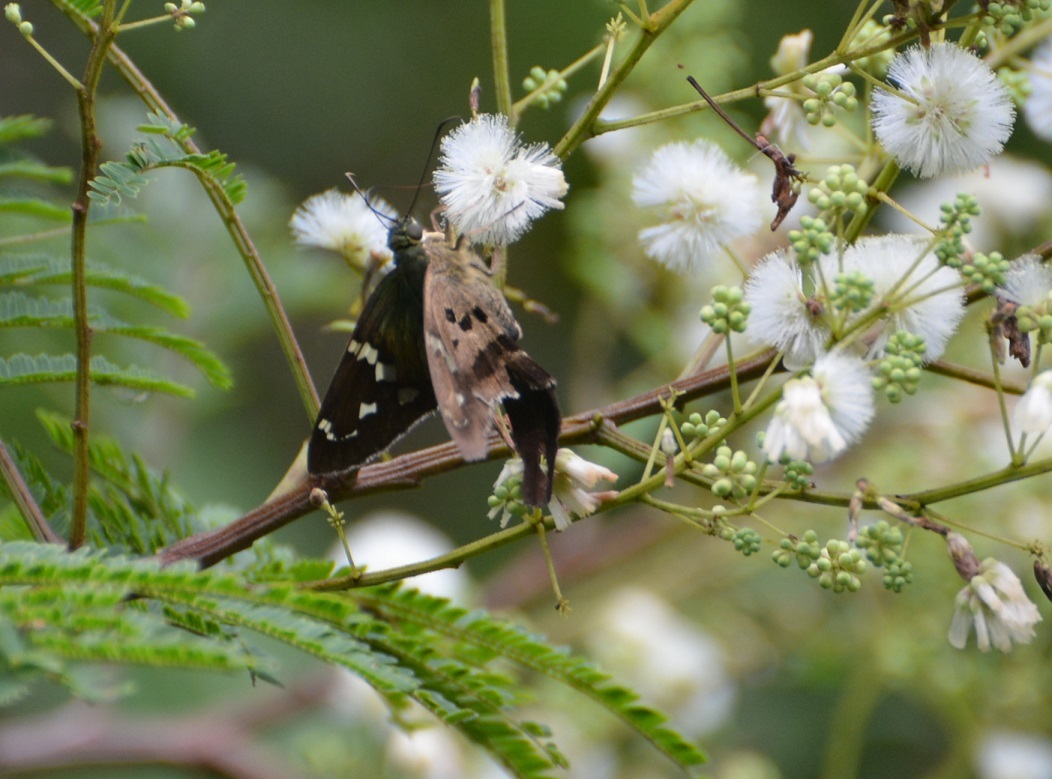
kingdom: Animalia
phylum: Arthropoda
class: Insecta
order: Lepidoptera
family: Hesperiidae
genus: Thorybes
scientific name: Thorybes
